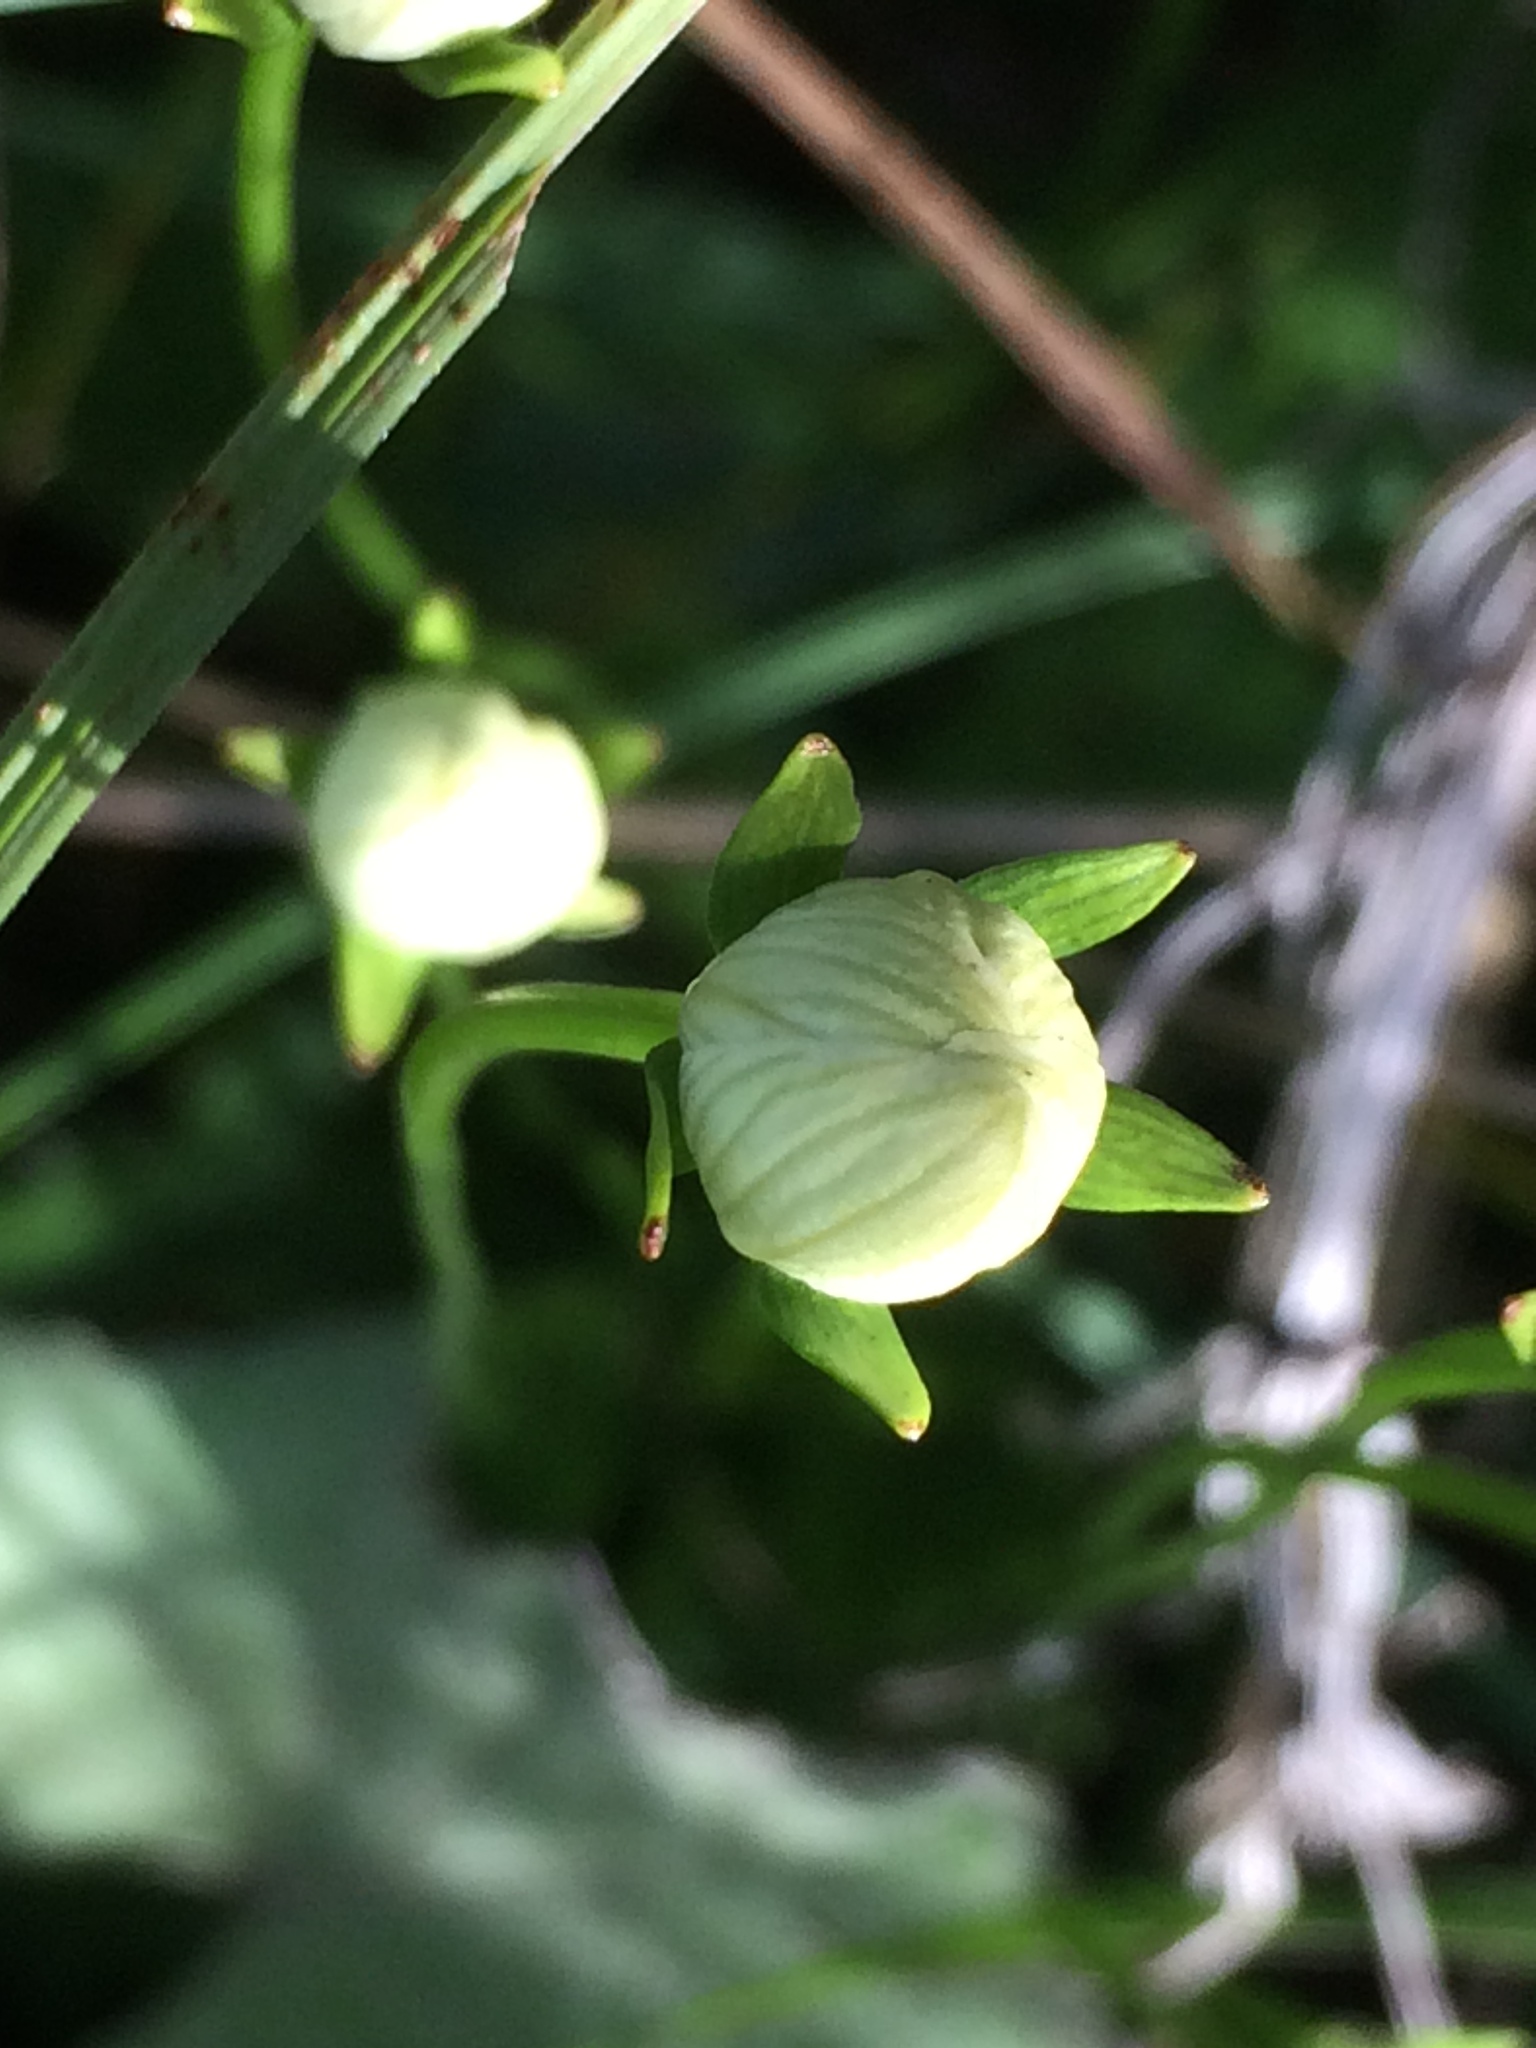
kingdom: Plantae
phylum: Tracheophyta
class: Magnoliopsida
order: Celastrales
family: Parnassiaceae
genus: Parnassia
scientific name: Parnassia palustris
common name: Grass-of-parnassus
